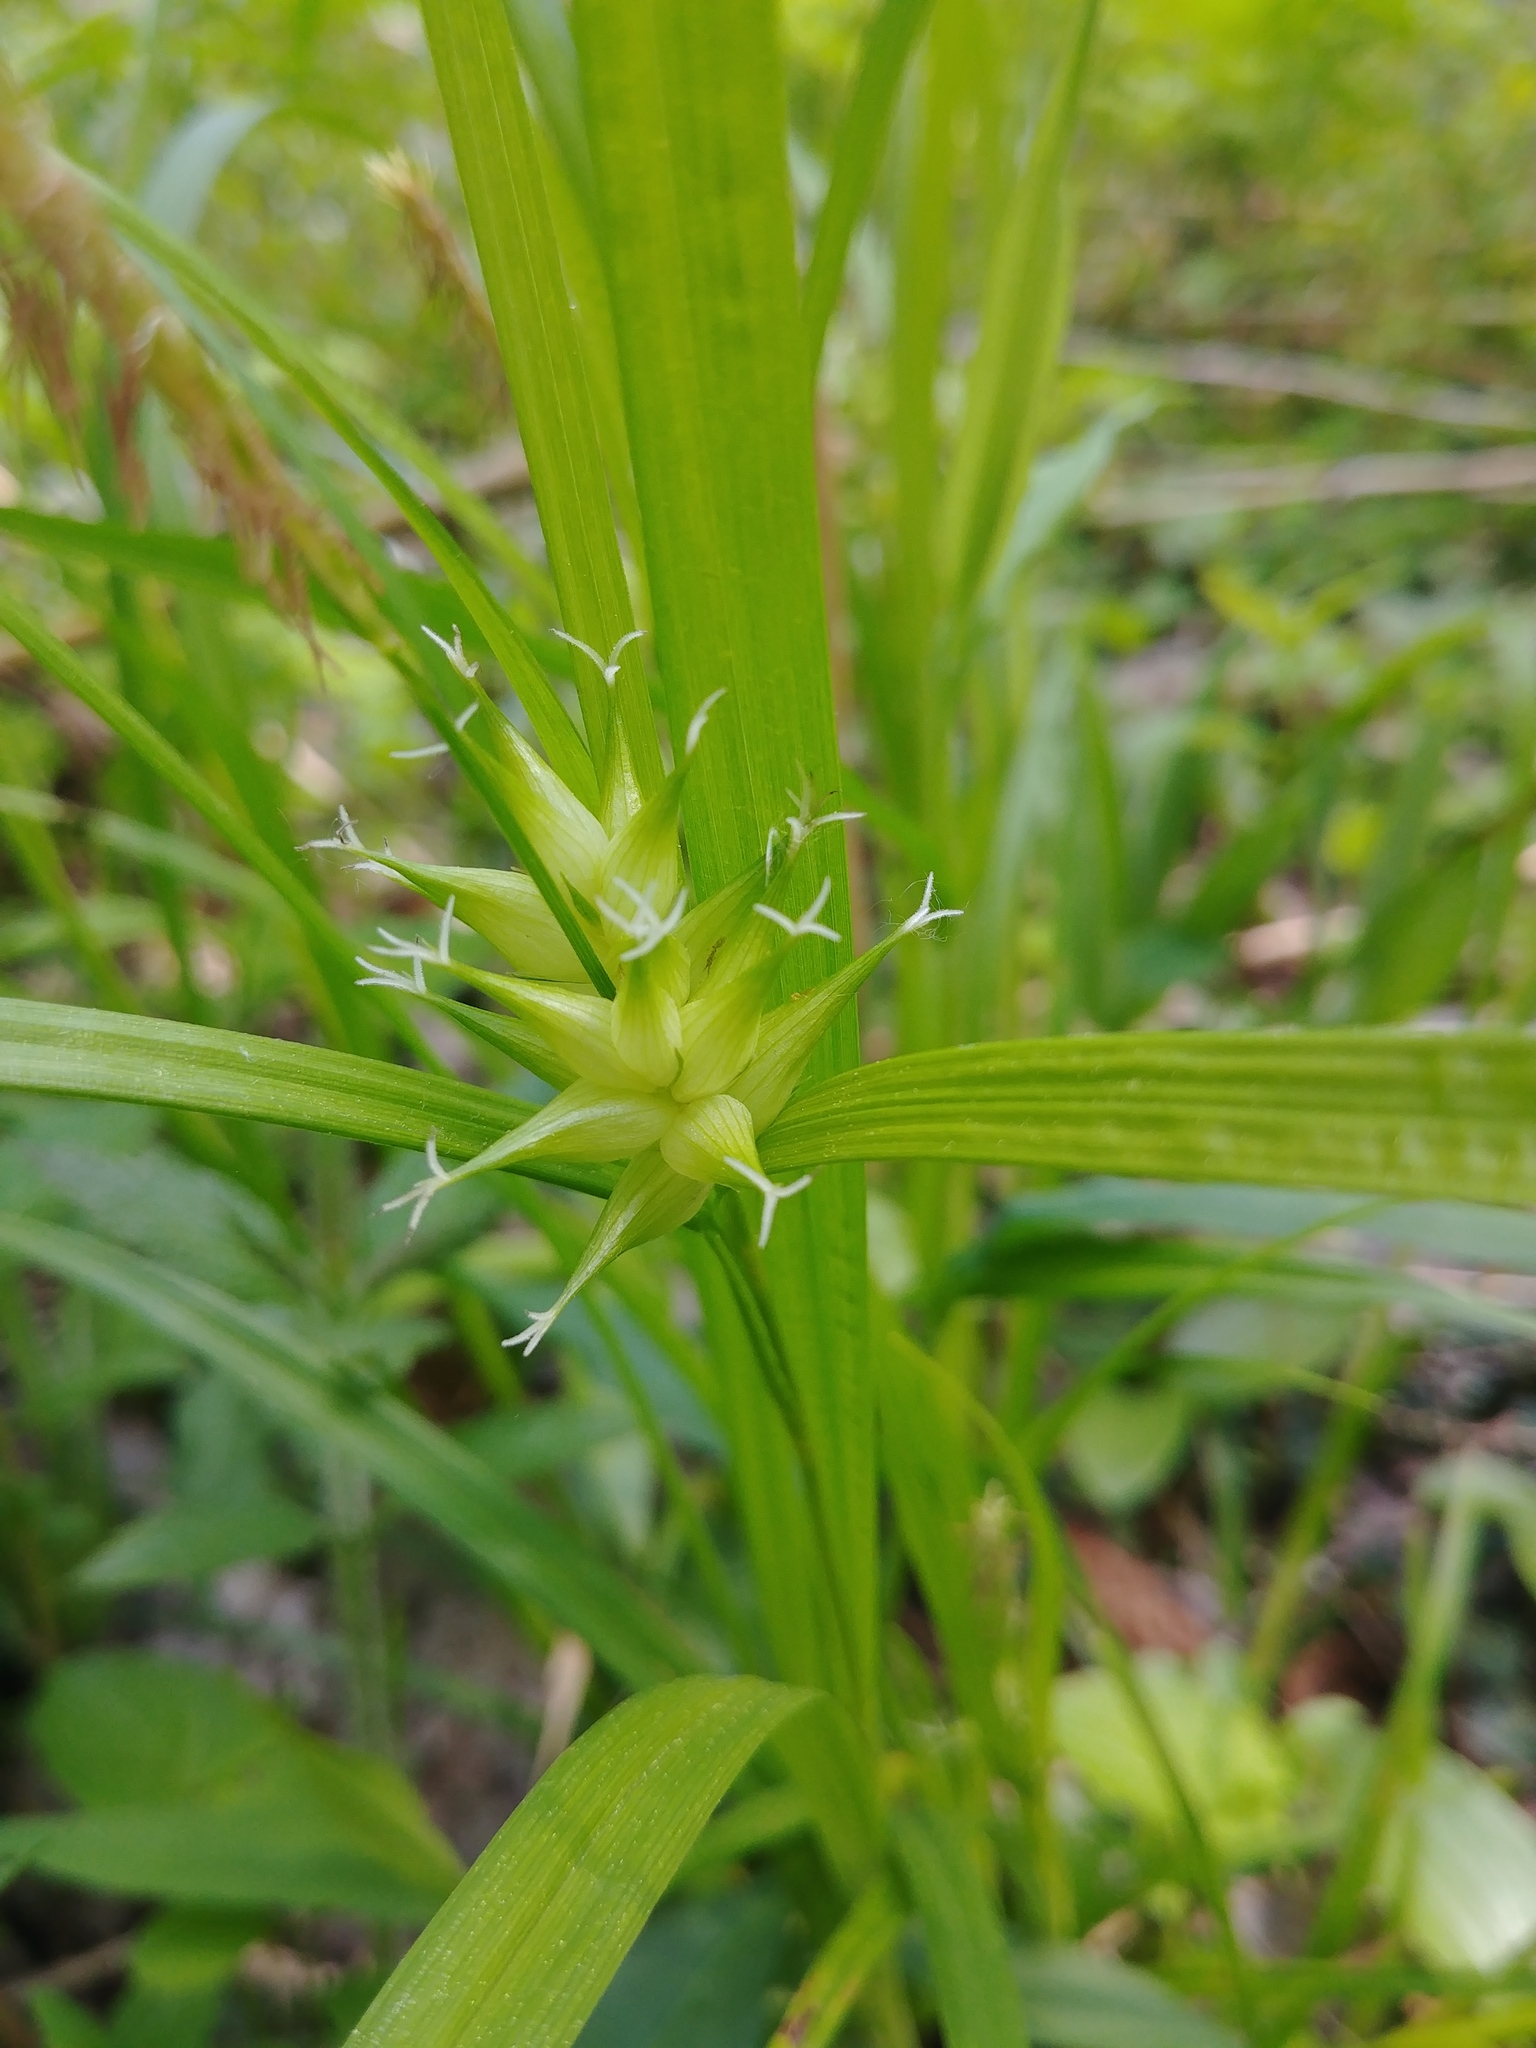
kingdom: Plantae
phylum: Tracheophyta
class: Liliopsida
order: Poales
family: Cyperaceae
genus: Carex
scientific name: Carex intumescens
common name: Greater bladder sedge
